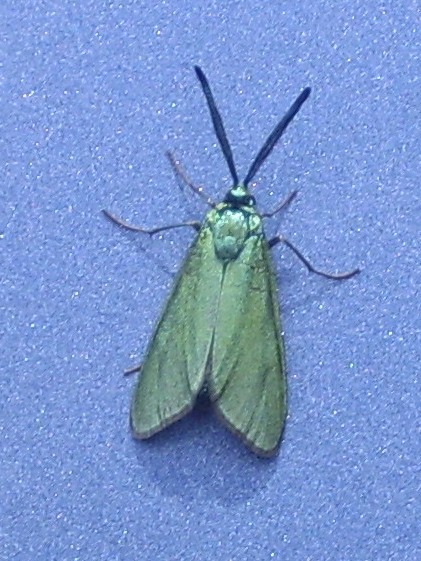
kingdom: Animalia
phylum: Arthropoda
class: Insecta
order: Lepidoptera
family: Zygaenidae
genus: Adscita
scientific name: Adscita statices
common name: Forester
